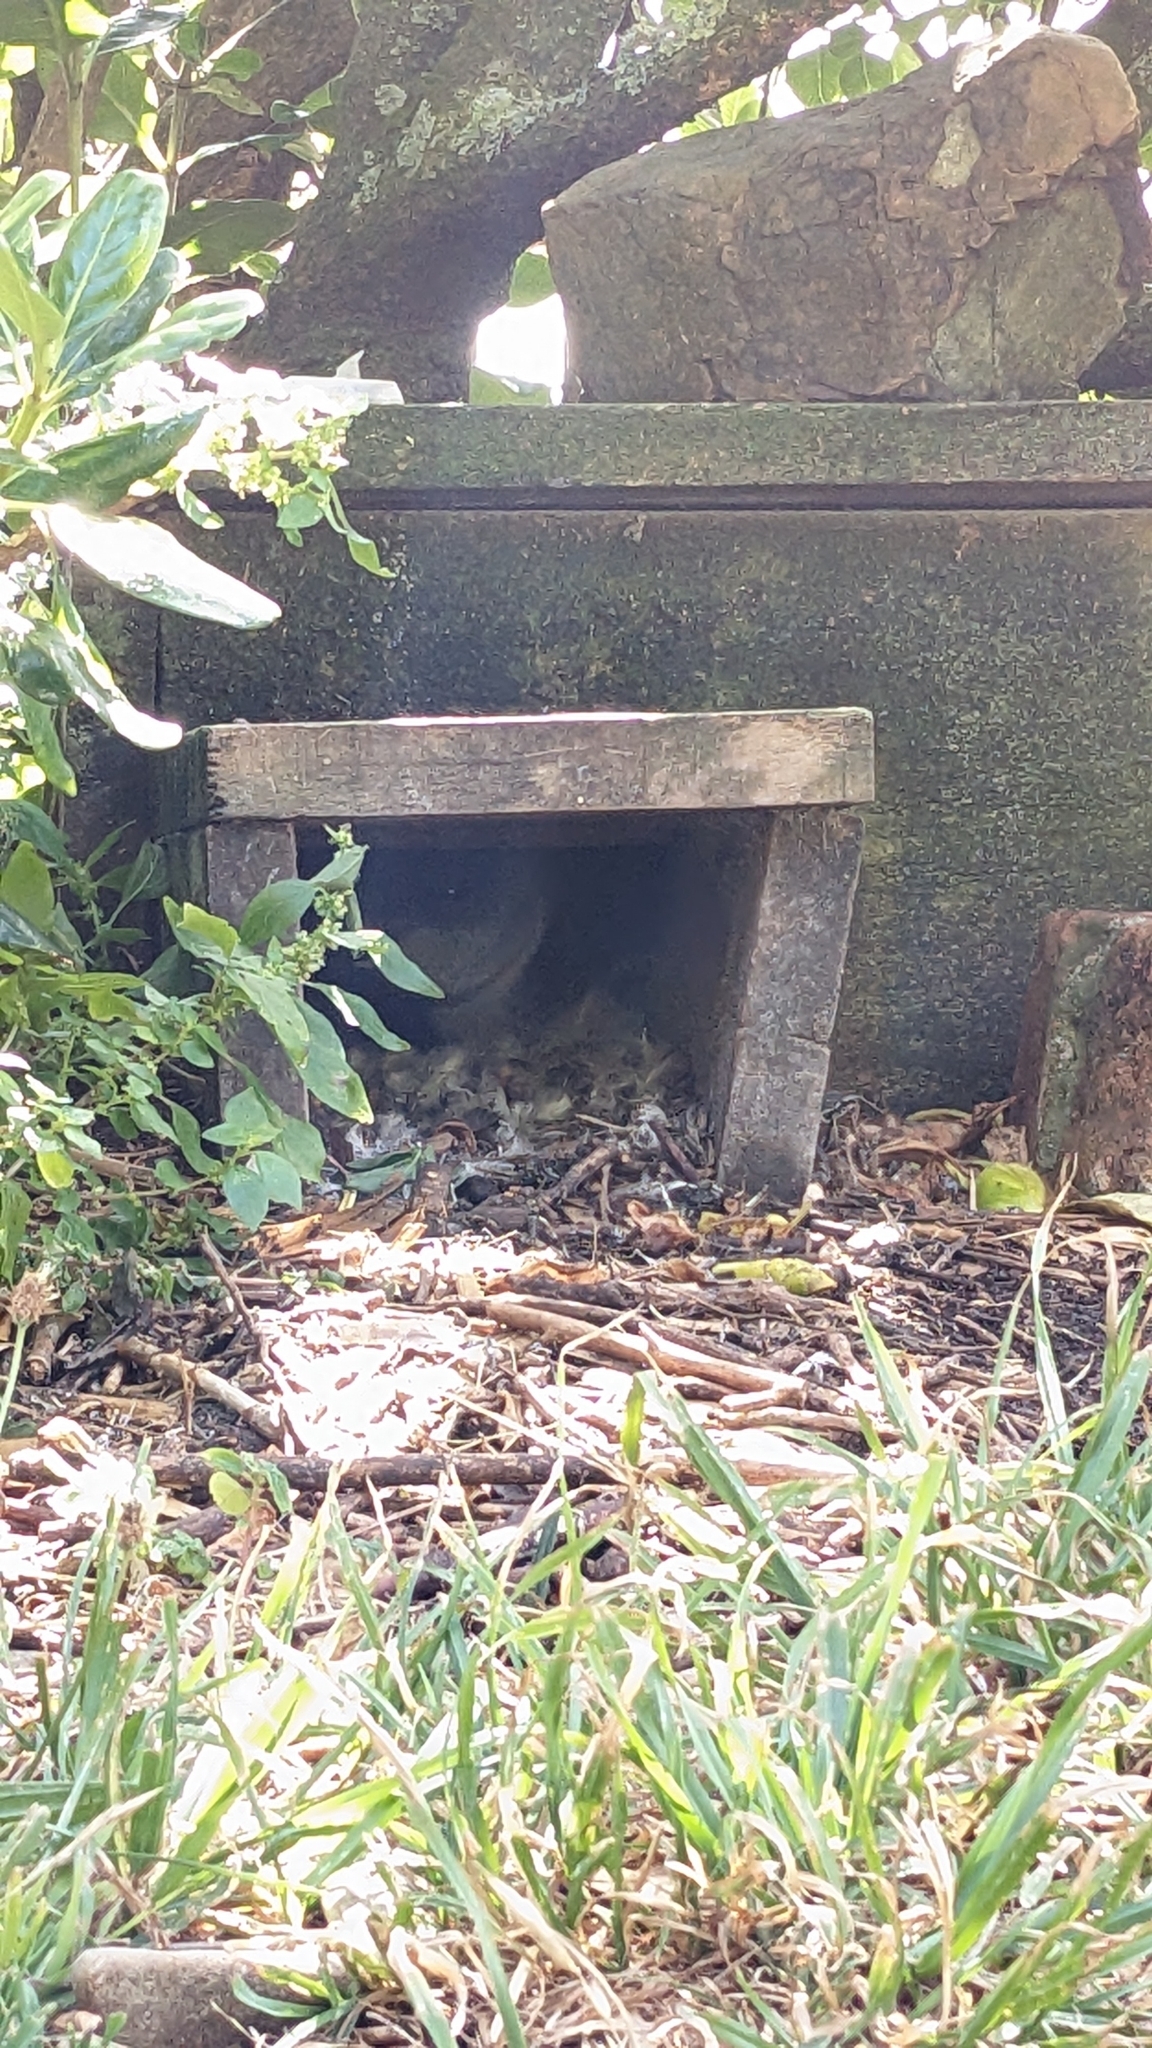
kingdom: Animalia
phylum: Chordata
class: Aves
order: Sphenisciformes
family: Spheniscidae
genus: Eudyptula
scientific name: Eudyptula minor
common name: Little penguin
